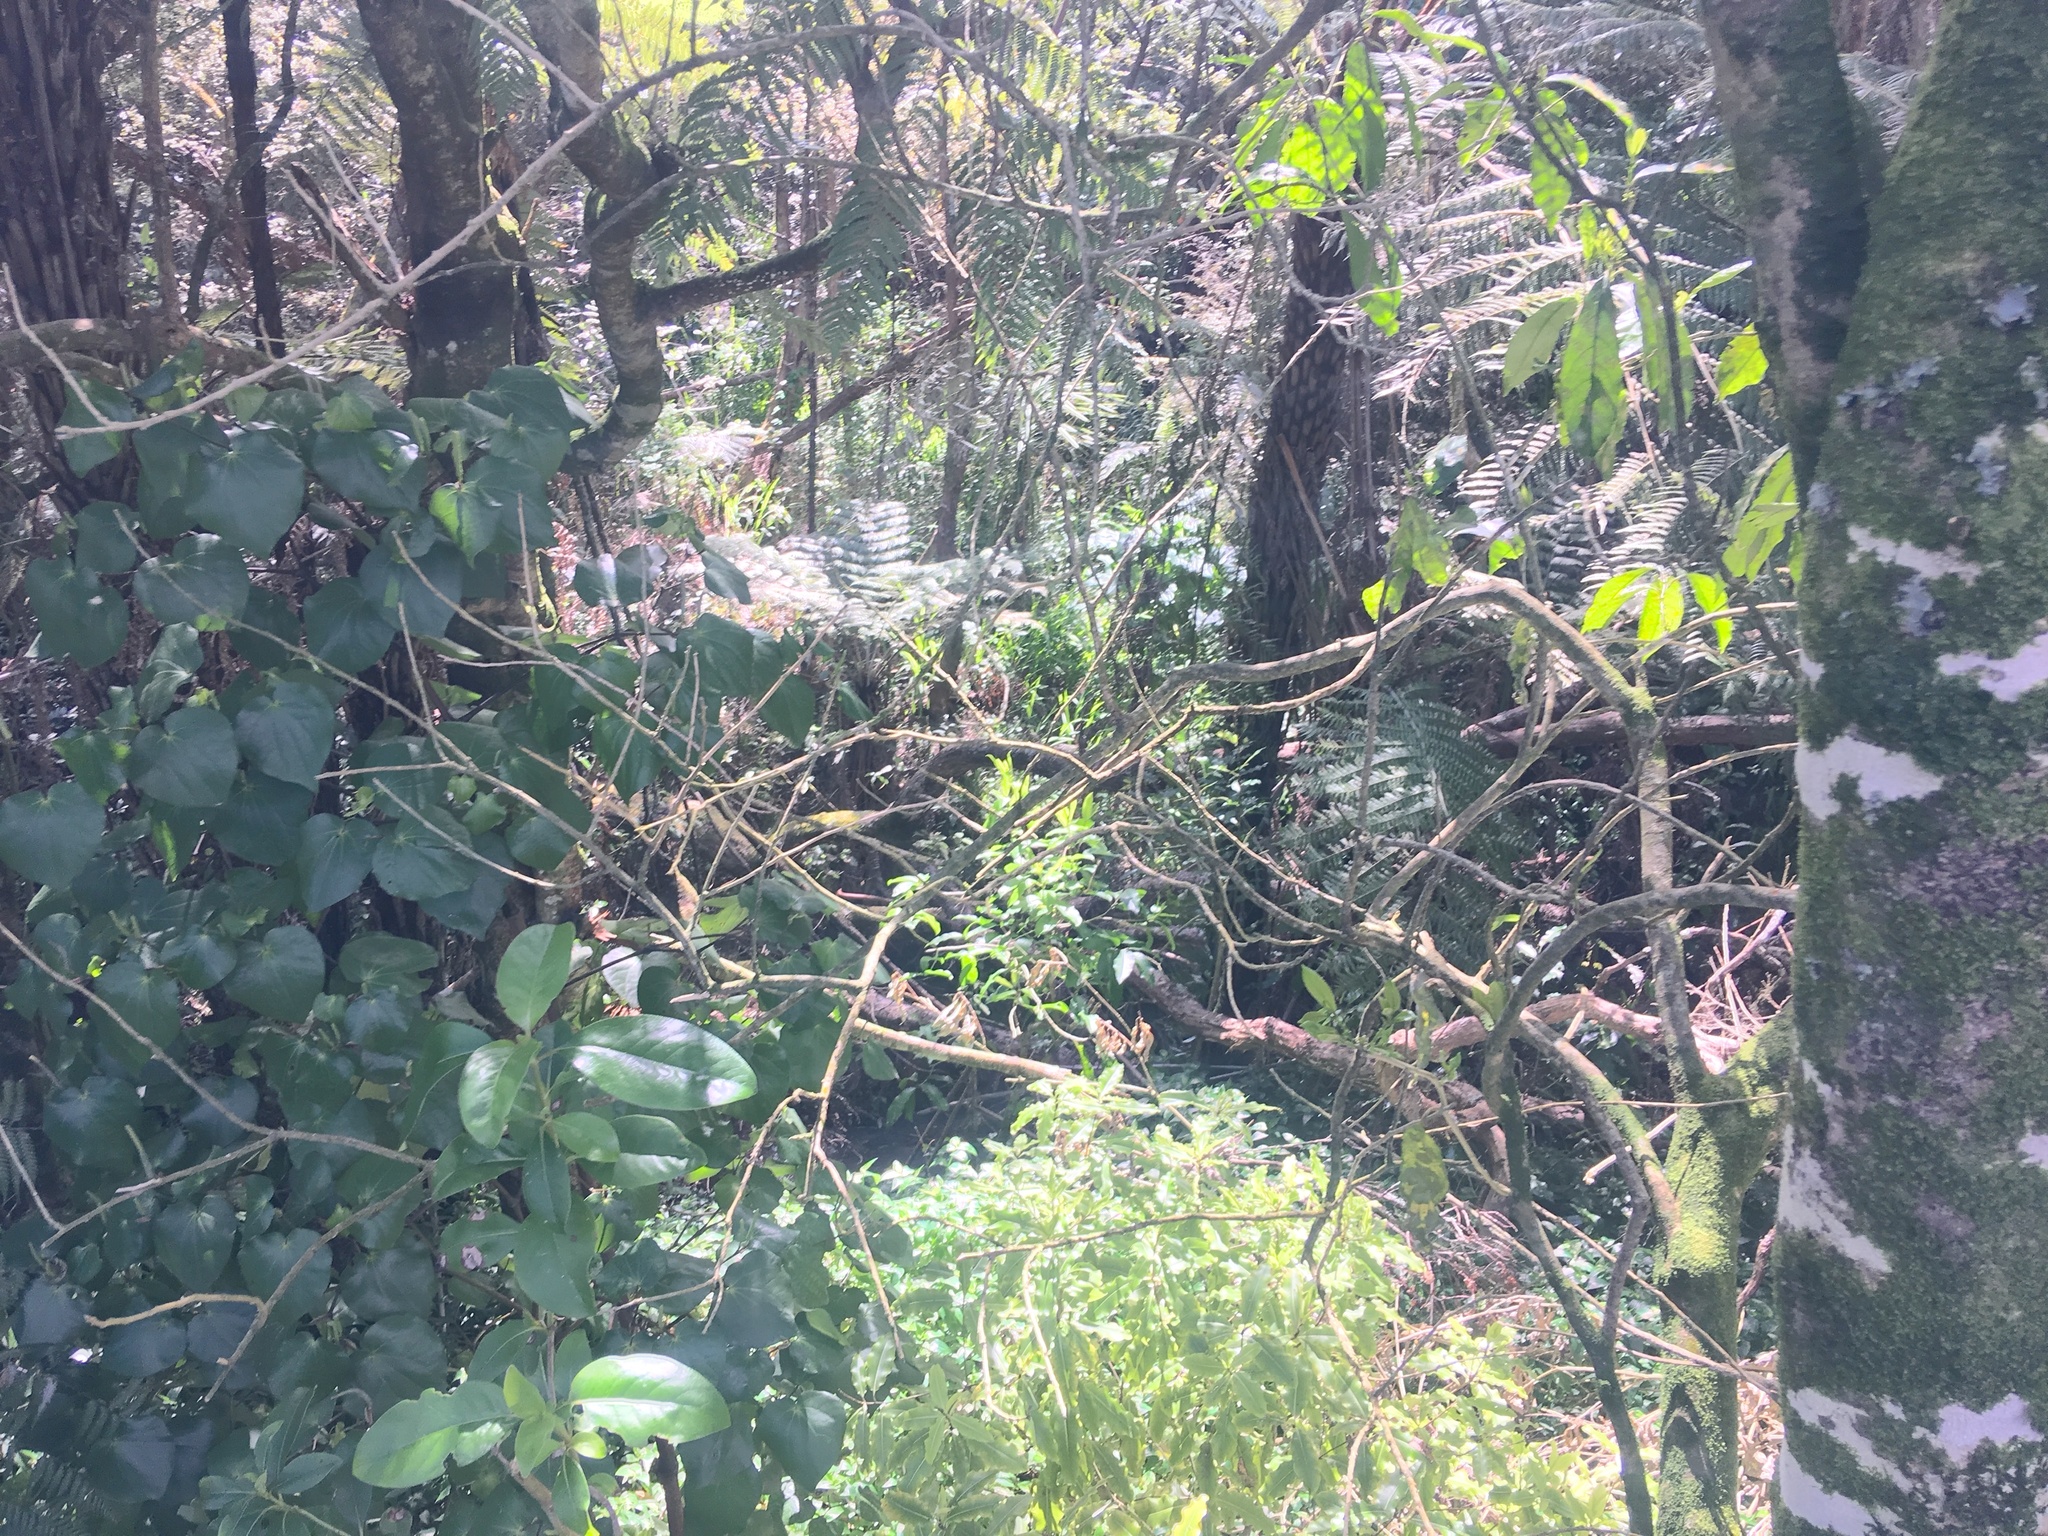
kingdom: Plantae
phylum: Tracheophyta
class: Magnoliopsida
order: Piperales
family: Piperaceae
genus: Macropiper
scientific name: Macropiper excelsum
